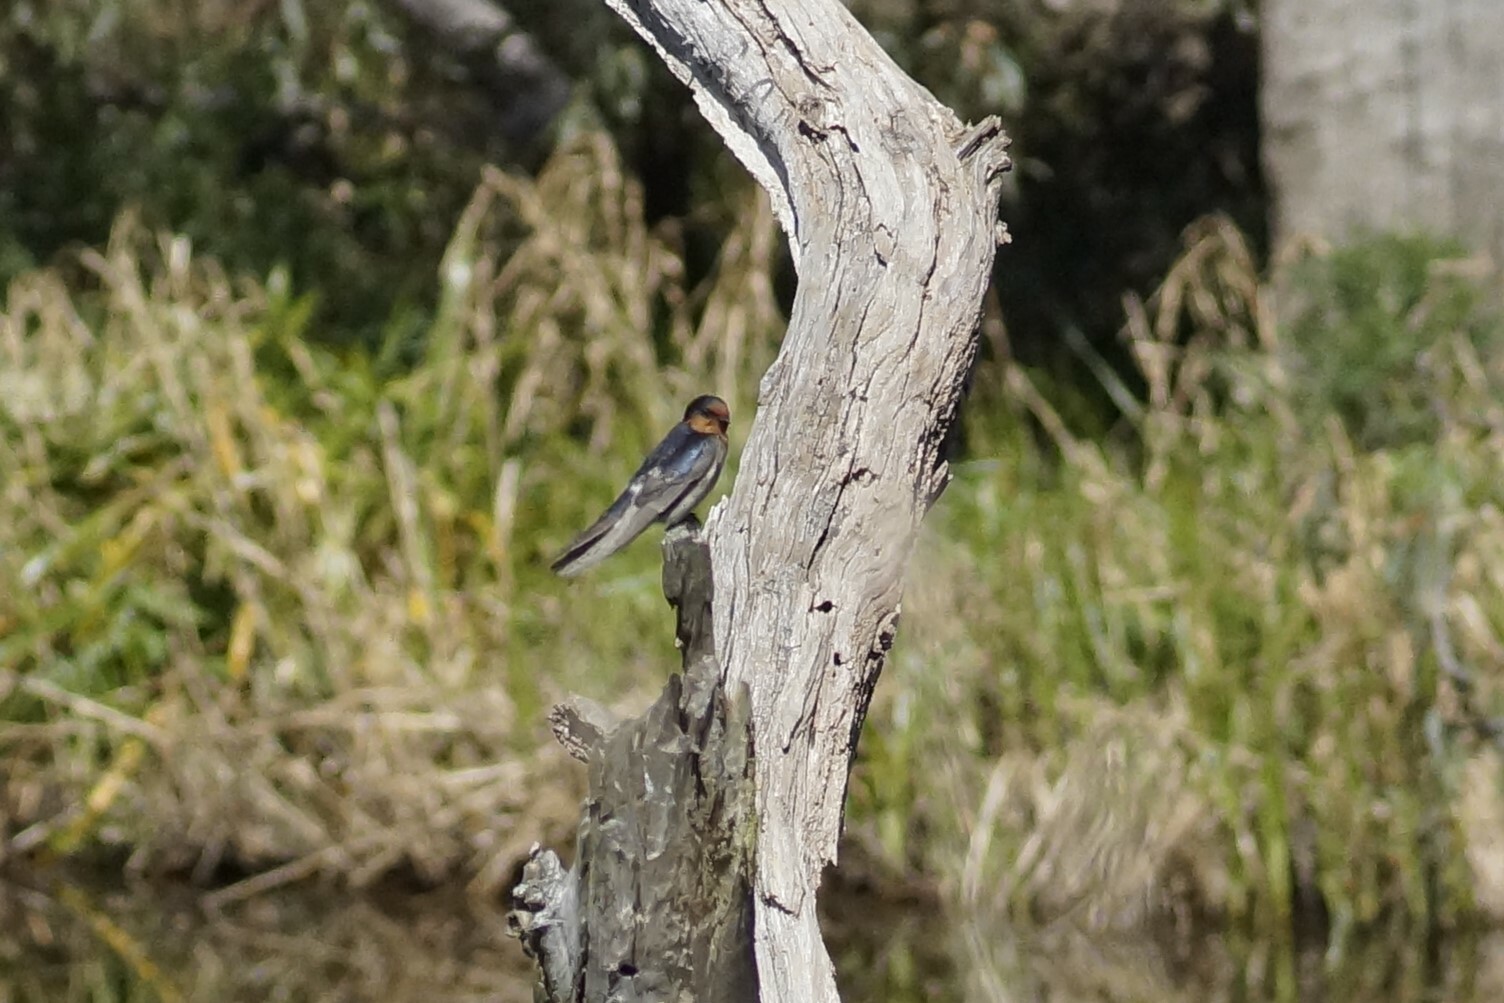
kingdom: Animalia
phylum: Chordata
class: Aves
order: Passeriformes
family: Hirundinidae
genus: Hirundo
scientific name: Hirundo neoxena
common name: Welcome swallow
